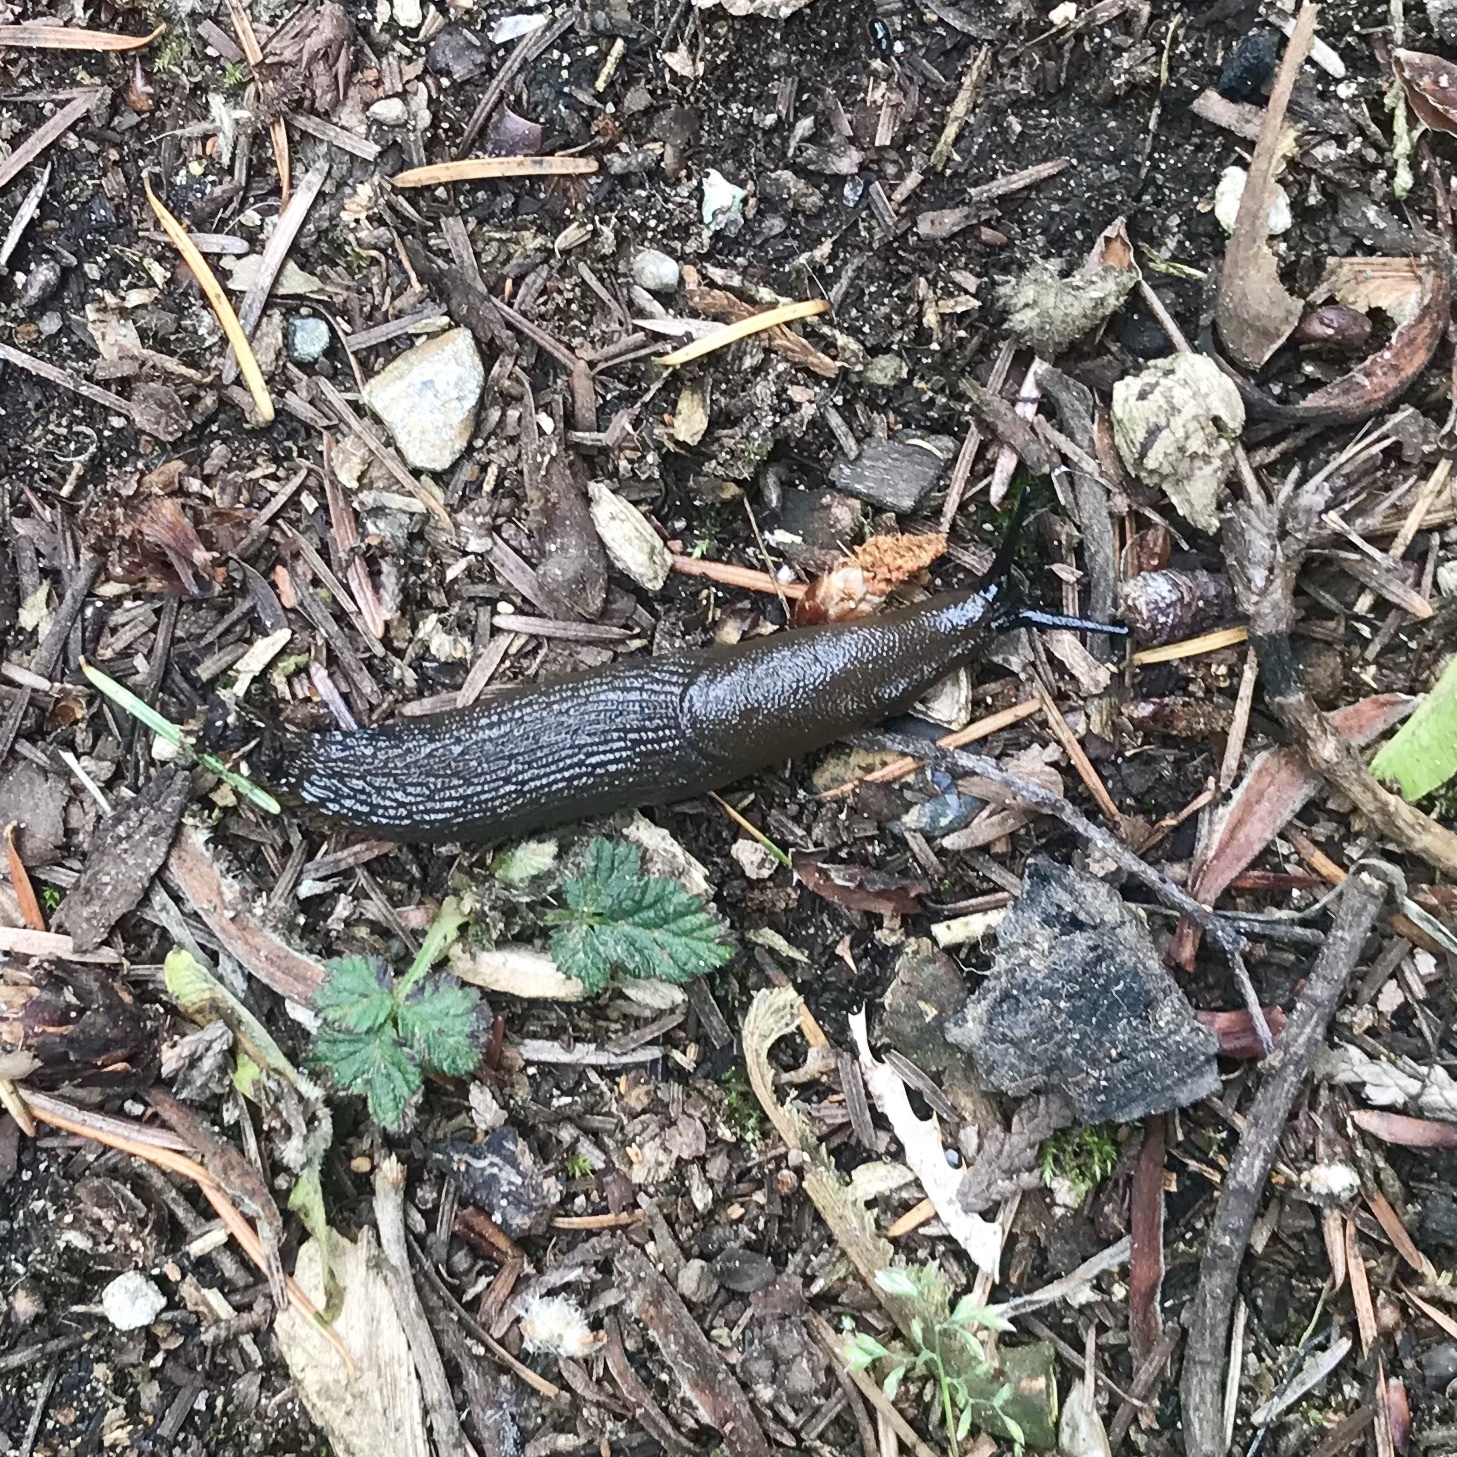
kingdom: Animalia
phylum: Mollusca
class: Gastropoda
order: Stylommatophora
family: Arionidae
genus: Arion
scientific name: Arion
